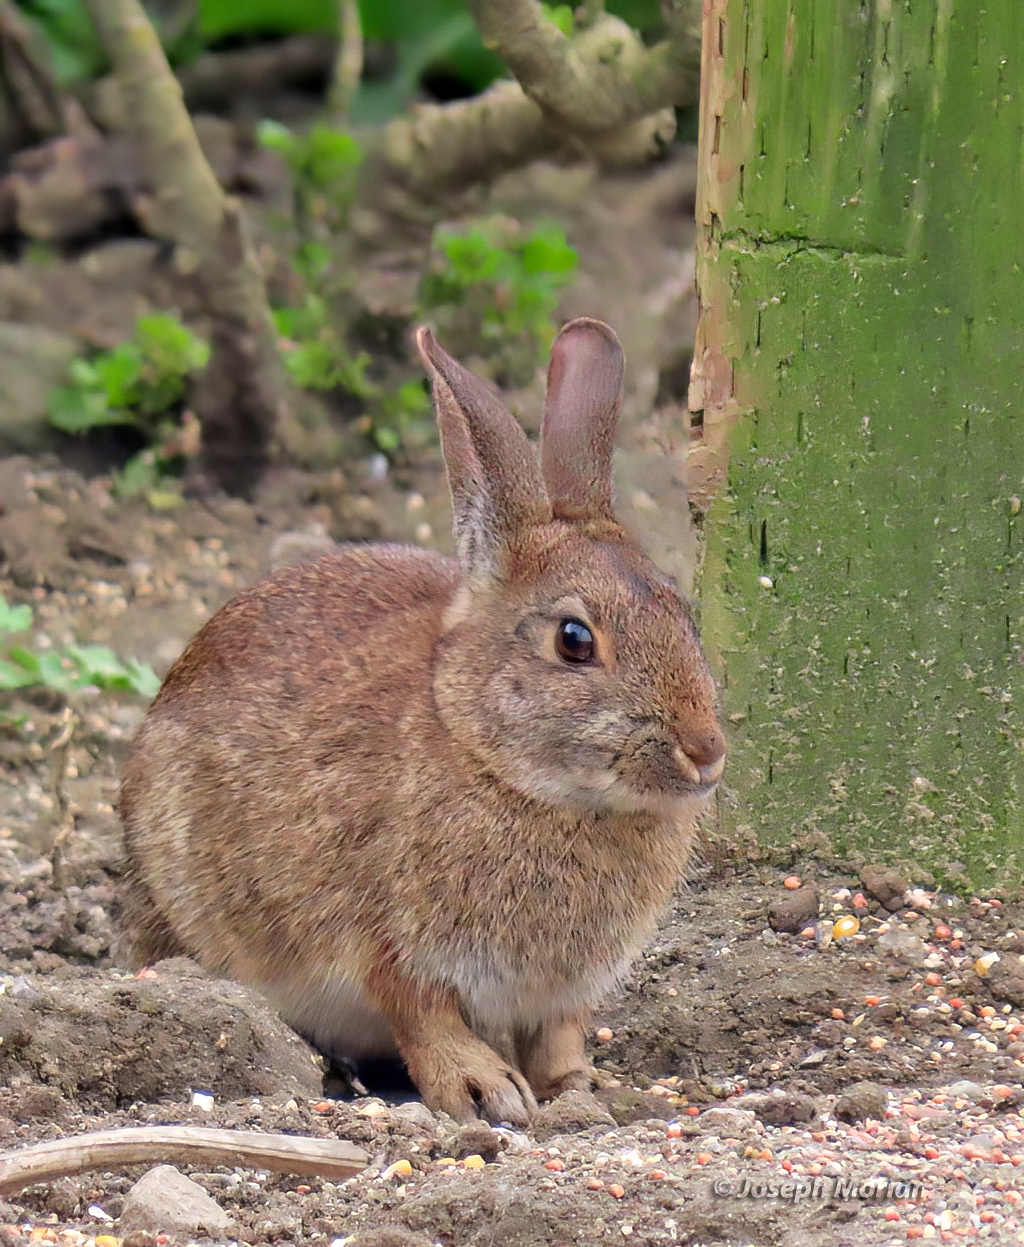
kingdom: Animalia
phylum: Chordata
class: Mammalia
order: Lagomorpha
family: Leporidae
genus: Sylvilagus
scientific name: Sylvilagus bachmani
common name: Brush rabbit
